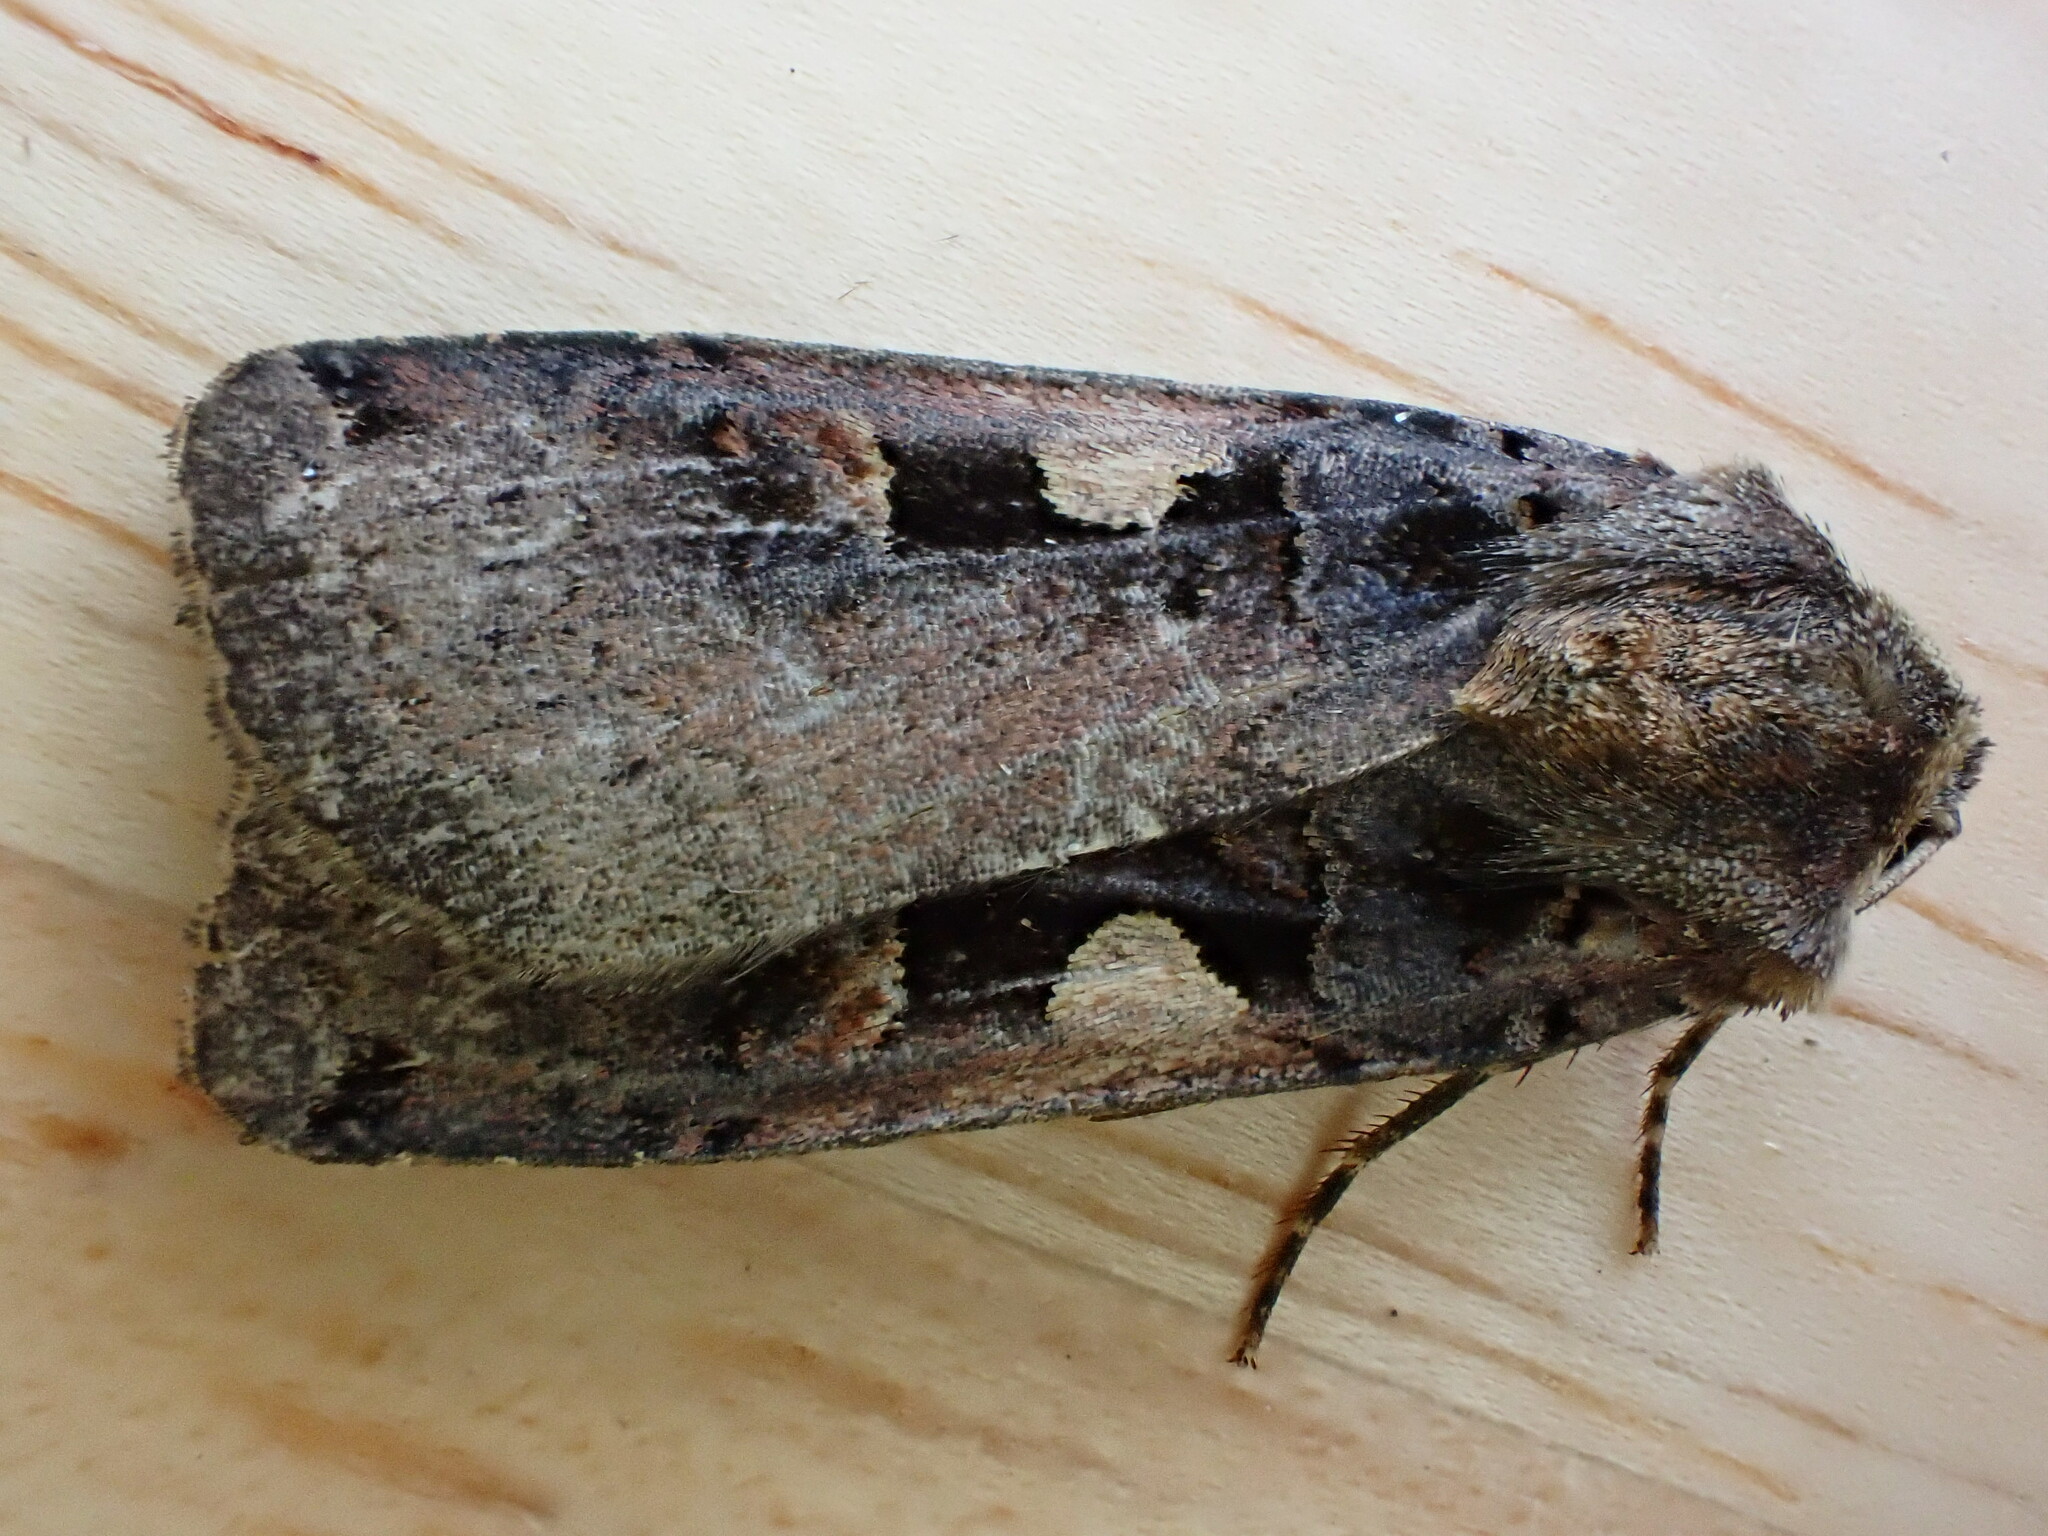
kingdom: Animalia
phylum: Arthropoda
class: Insecta
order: Lepidoptera
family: Noctuidae
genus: Xestia
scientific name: Xestia c-nigrum
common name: Setaceous hebrew character
